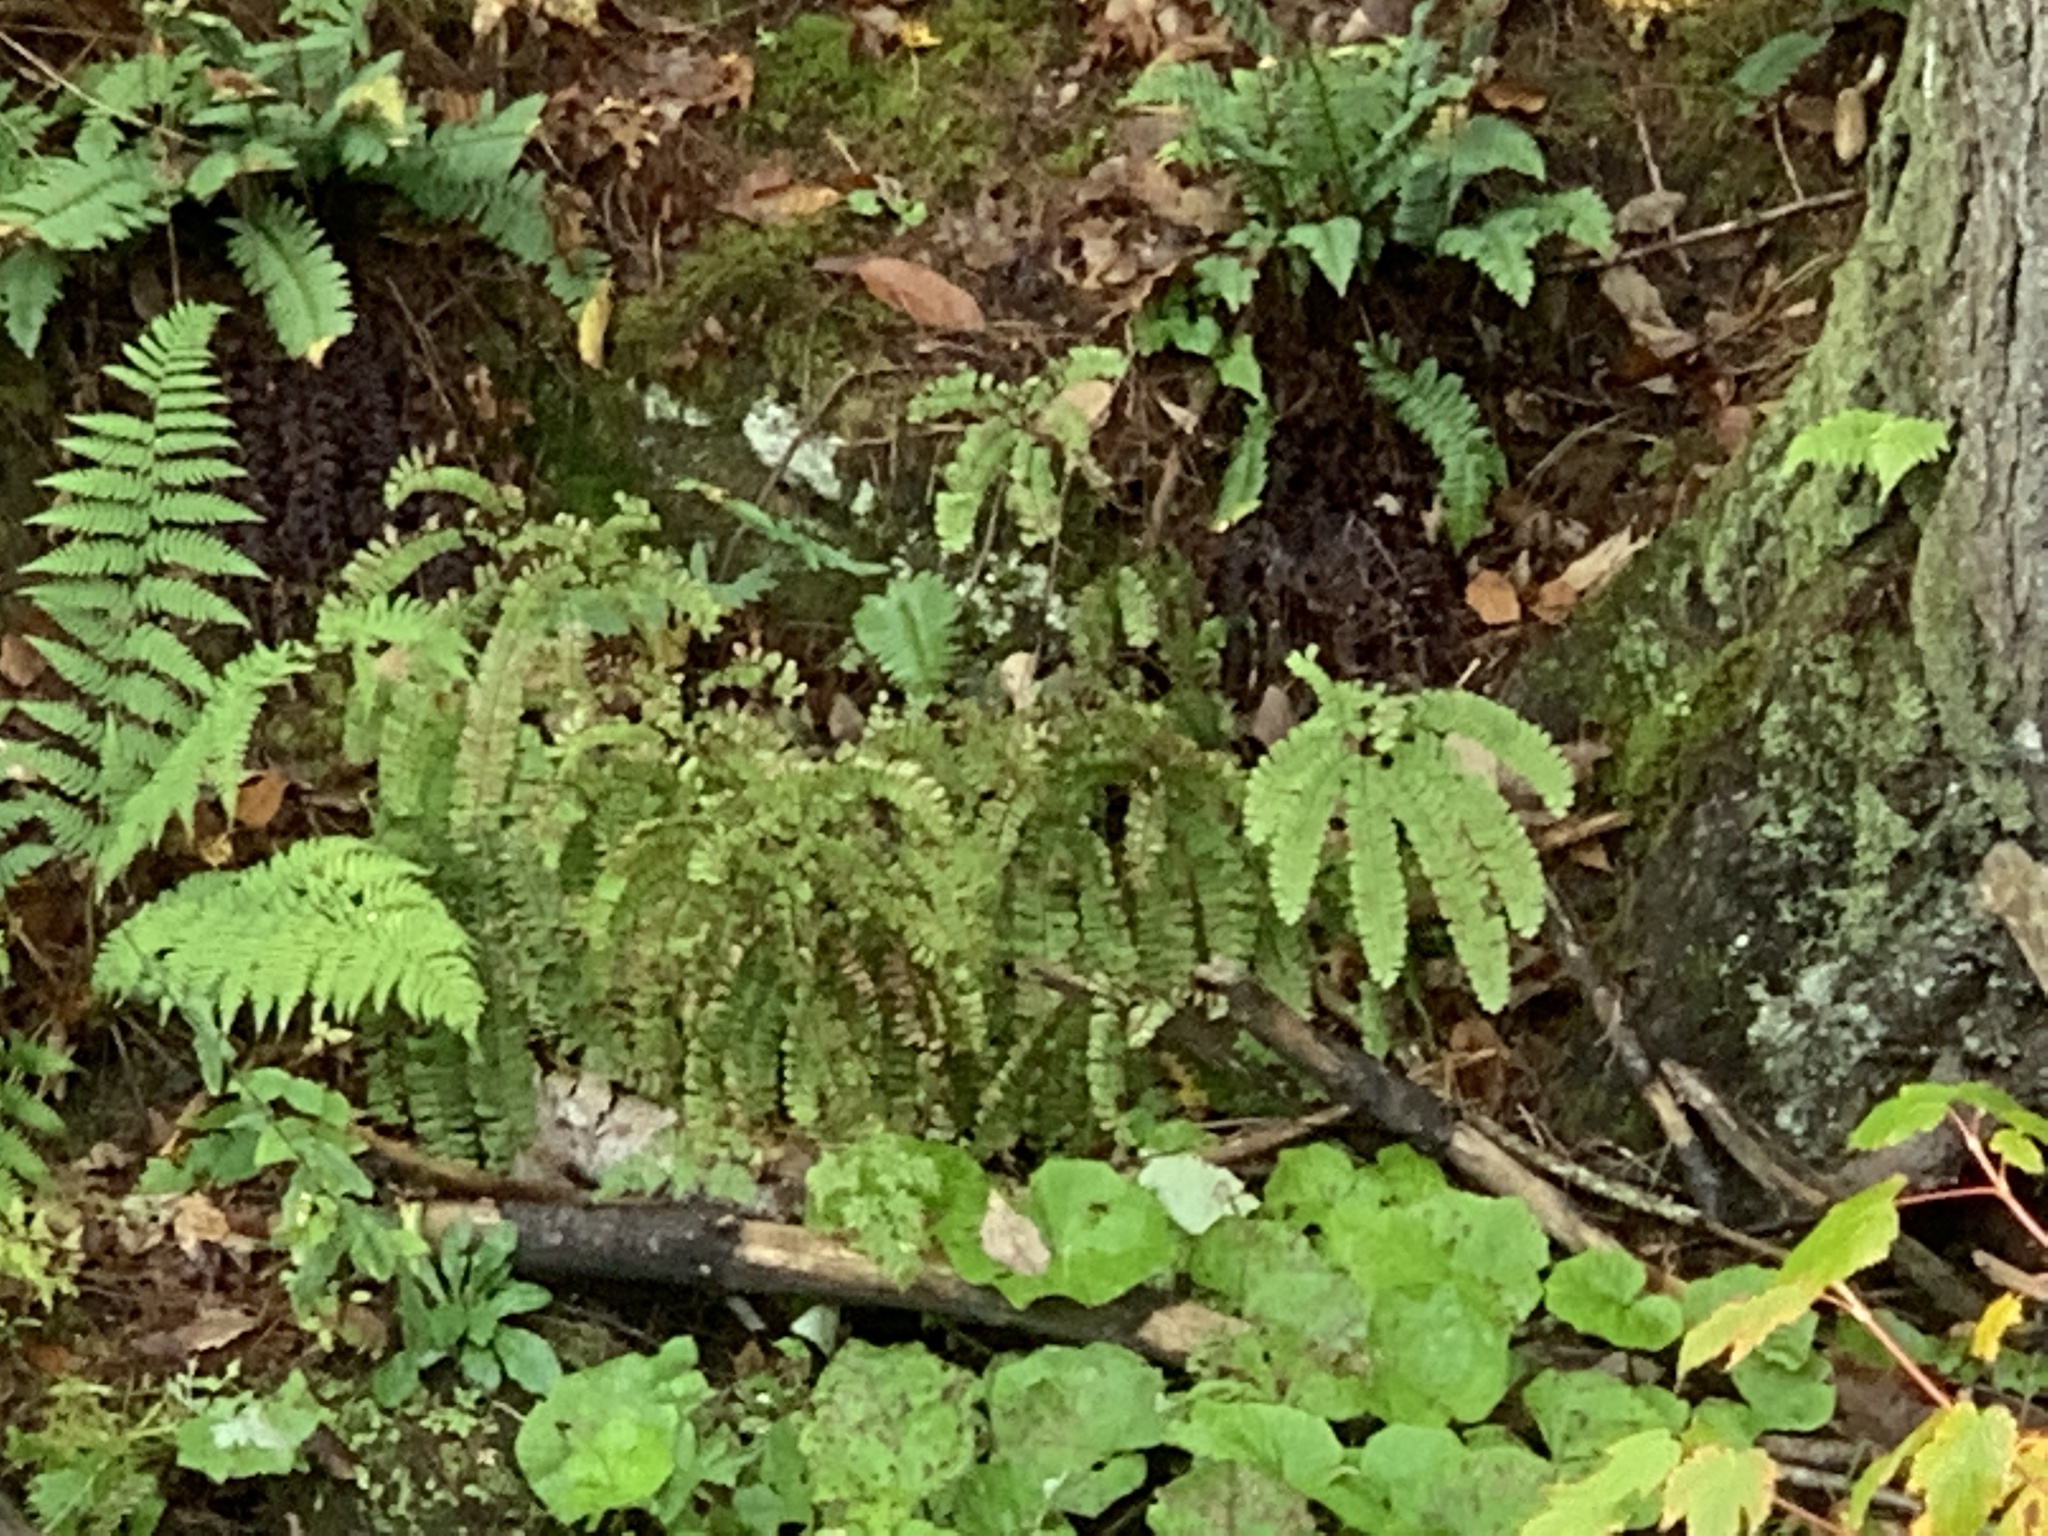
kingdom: Plantae
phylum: Tracheophyta
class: Polypodiopsida
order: Polypodiales
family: Pteridaceae
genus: Adiantum
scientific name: Adiantum pedatum
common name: Five-finger fern
